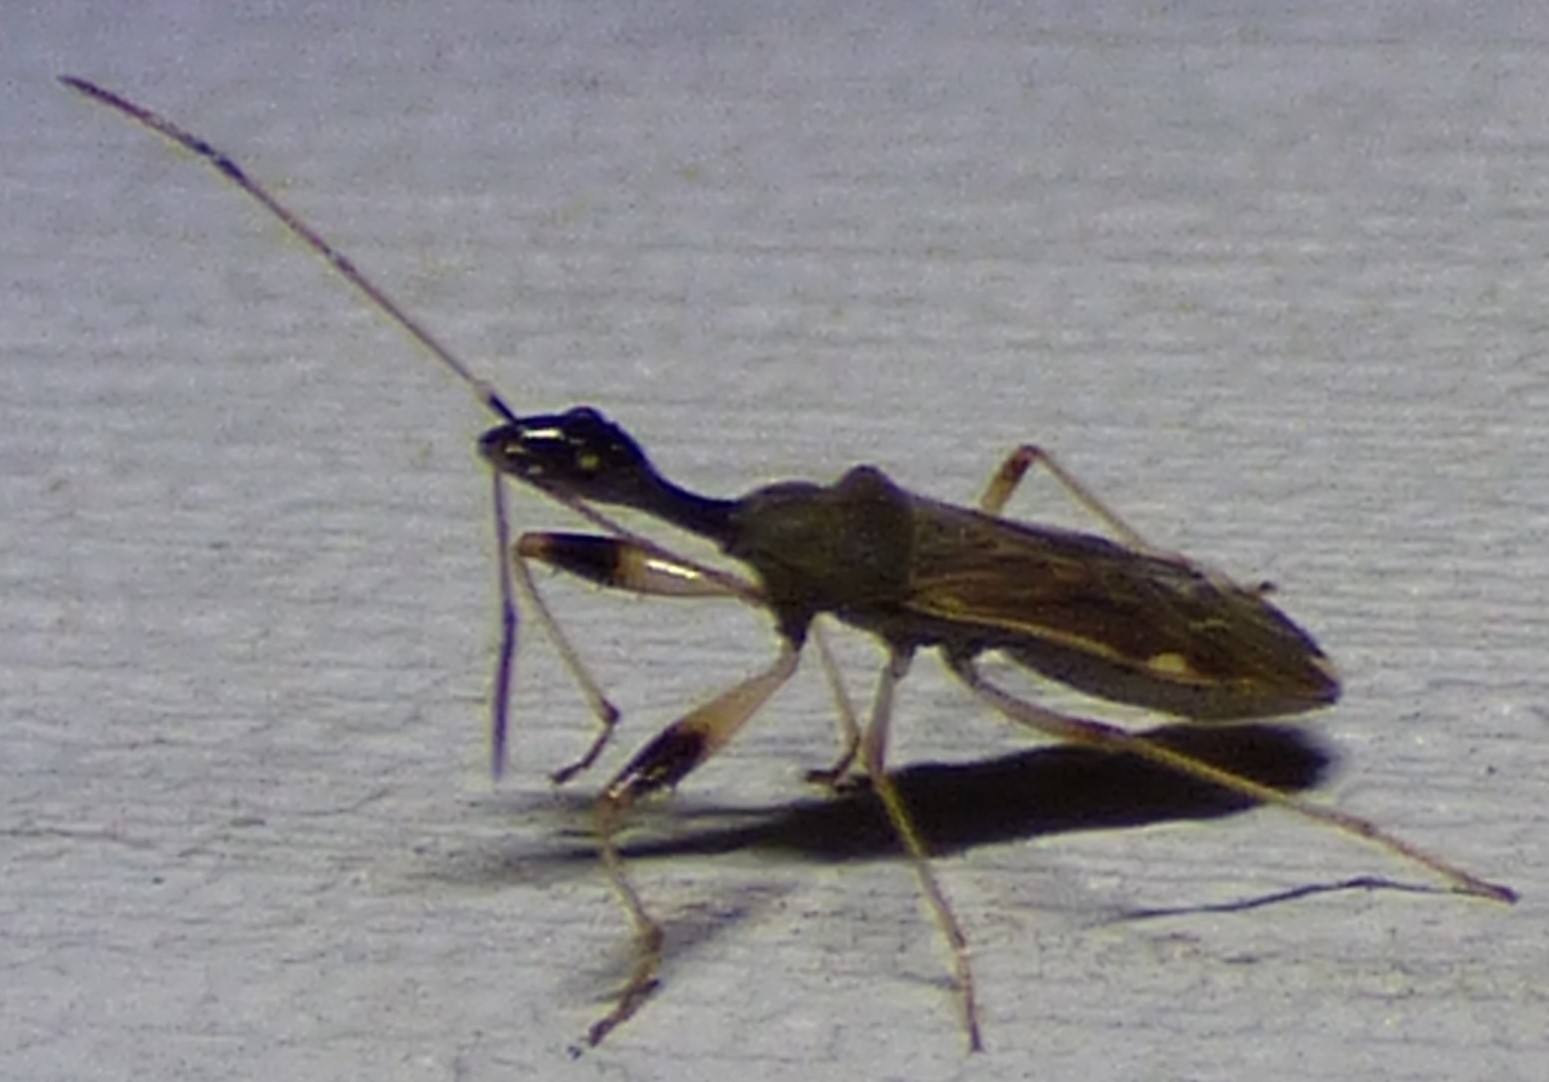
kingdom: Animalia
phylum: Arthropoda
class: Insecta
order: Hemiptera
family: Rhyparochromidae
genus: Myodocha
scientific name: Myodocha serripes
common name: Long-necked seed bug
